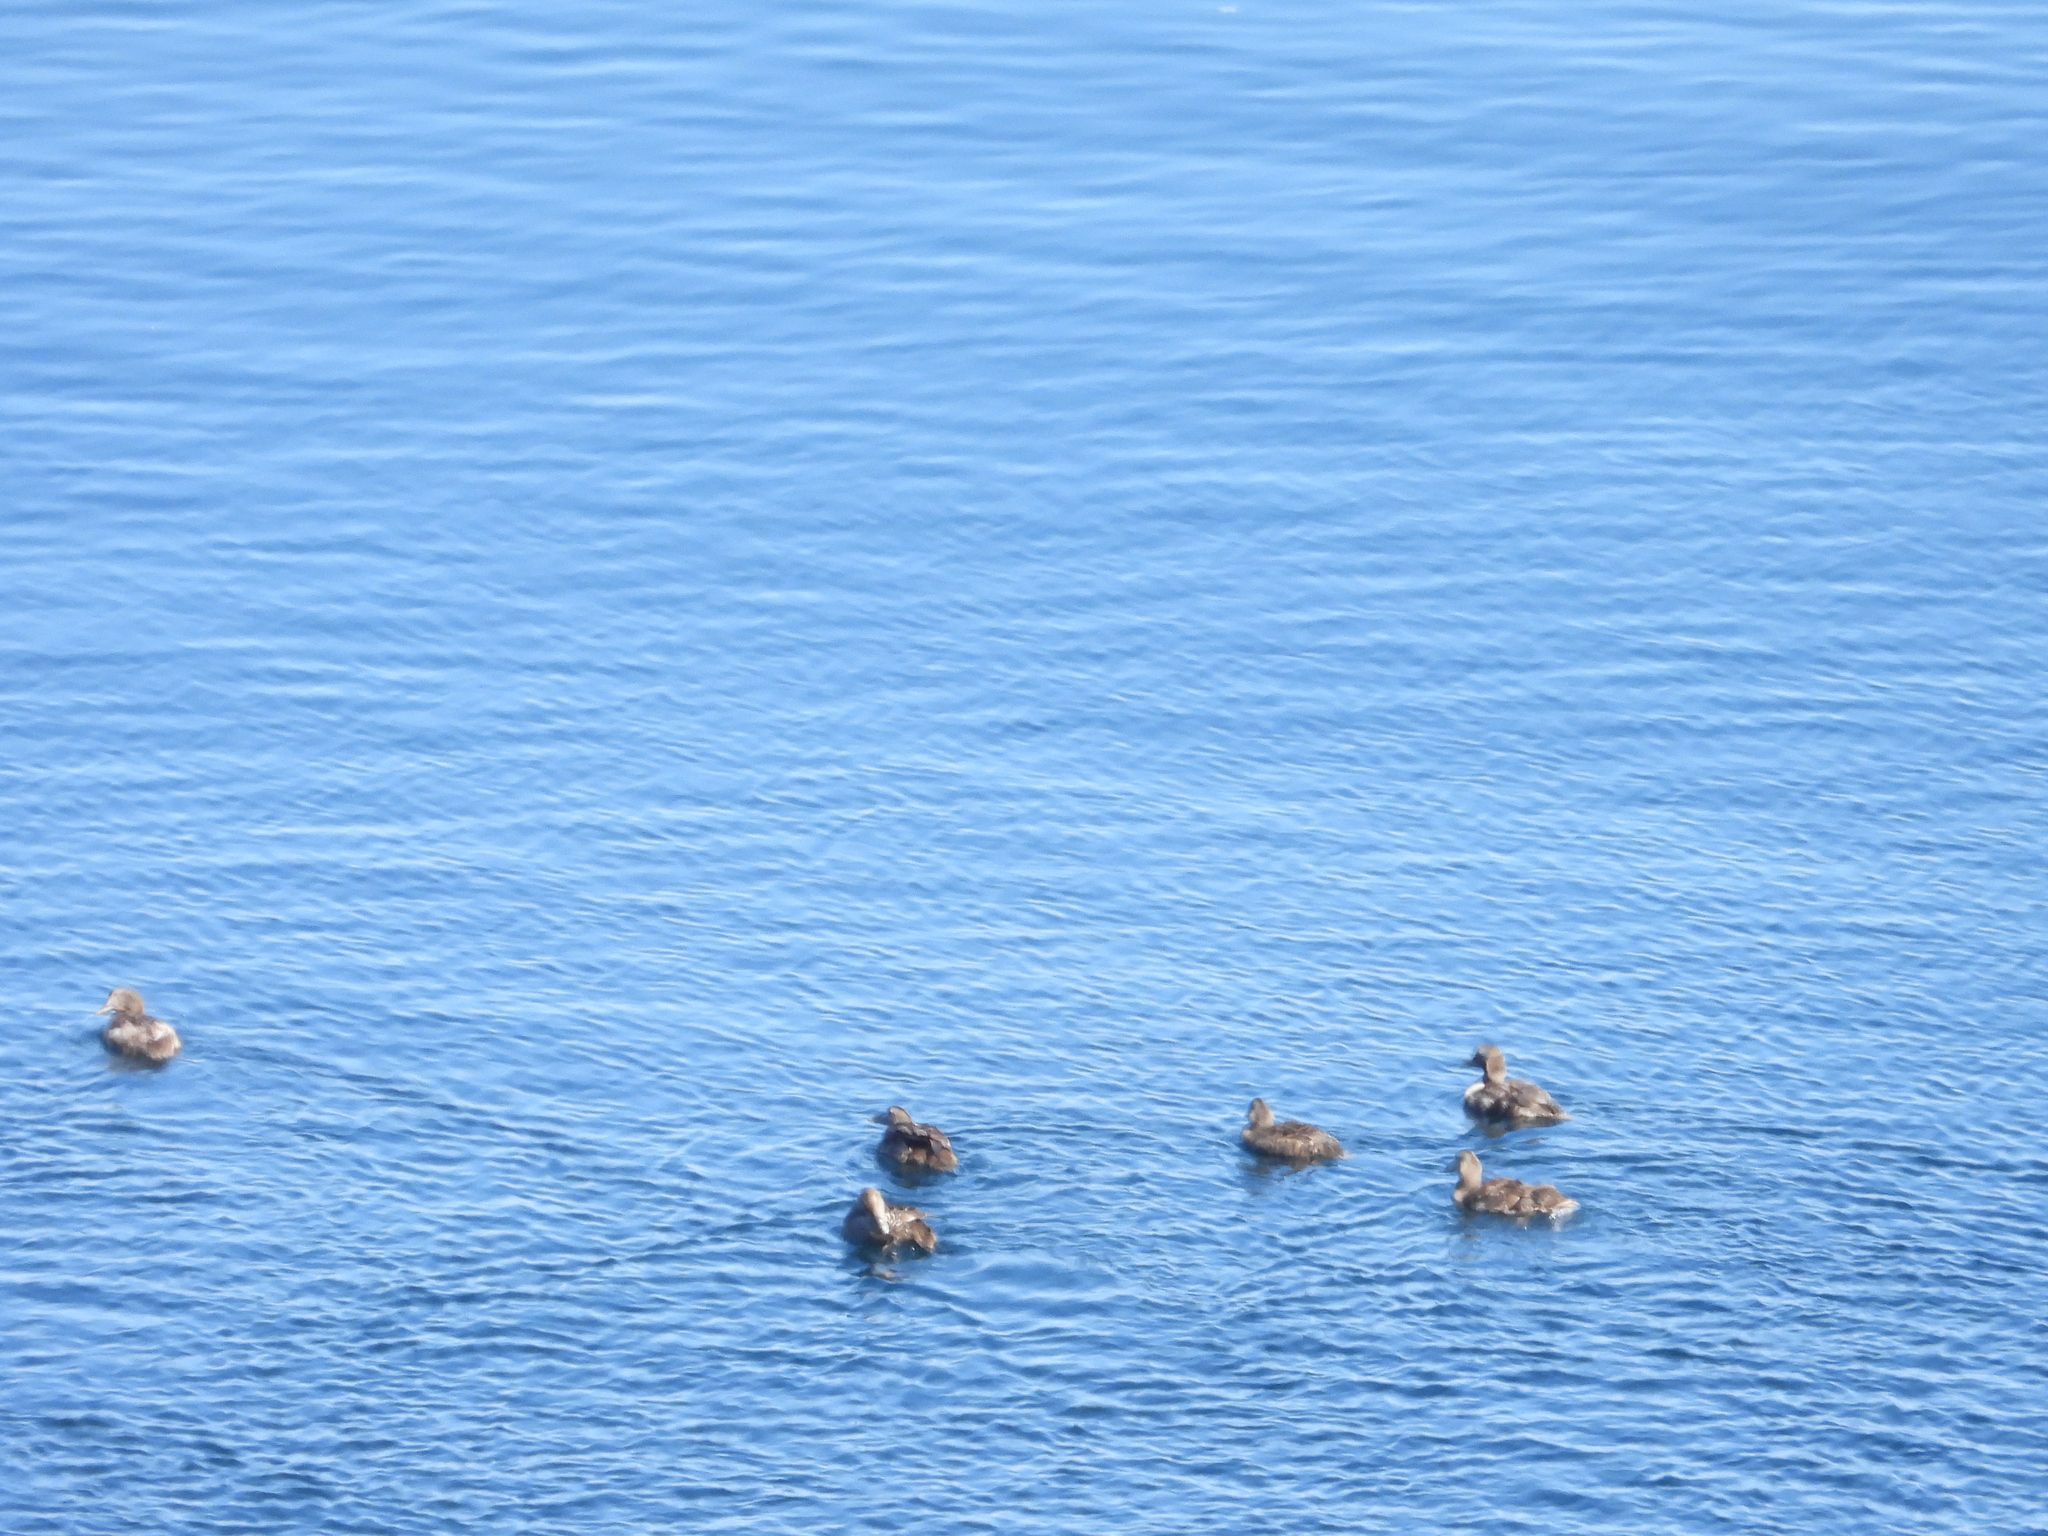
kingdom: Animalia
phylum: Chordata
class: Aves
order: Anseriformes
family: Anatidae
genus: Somateria
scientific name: Somateria mollissima
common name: Common eider
